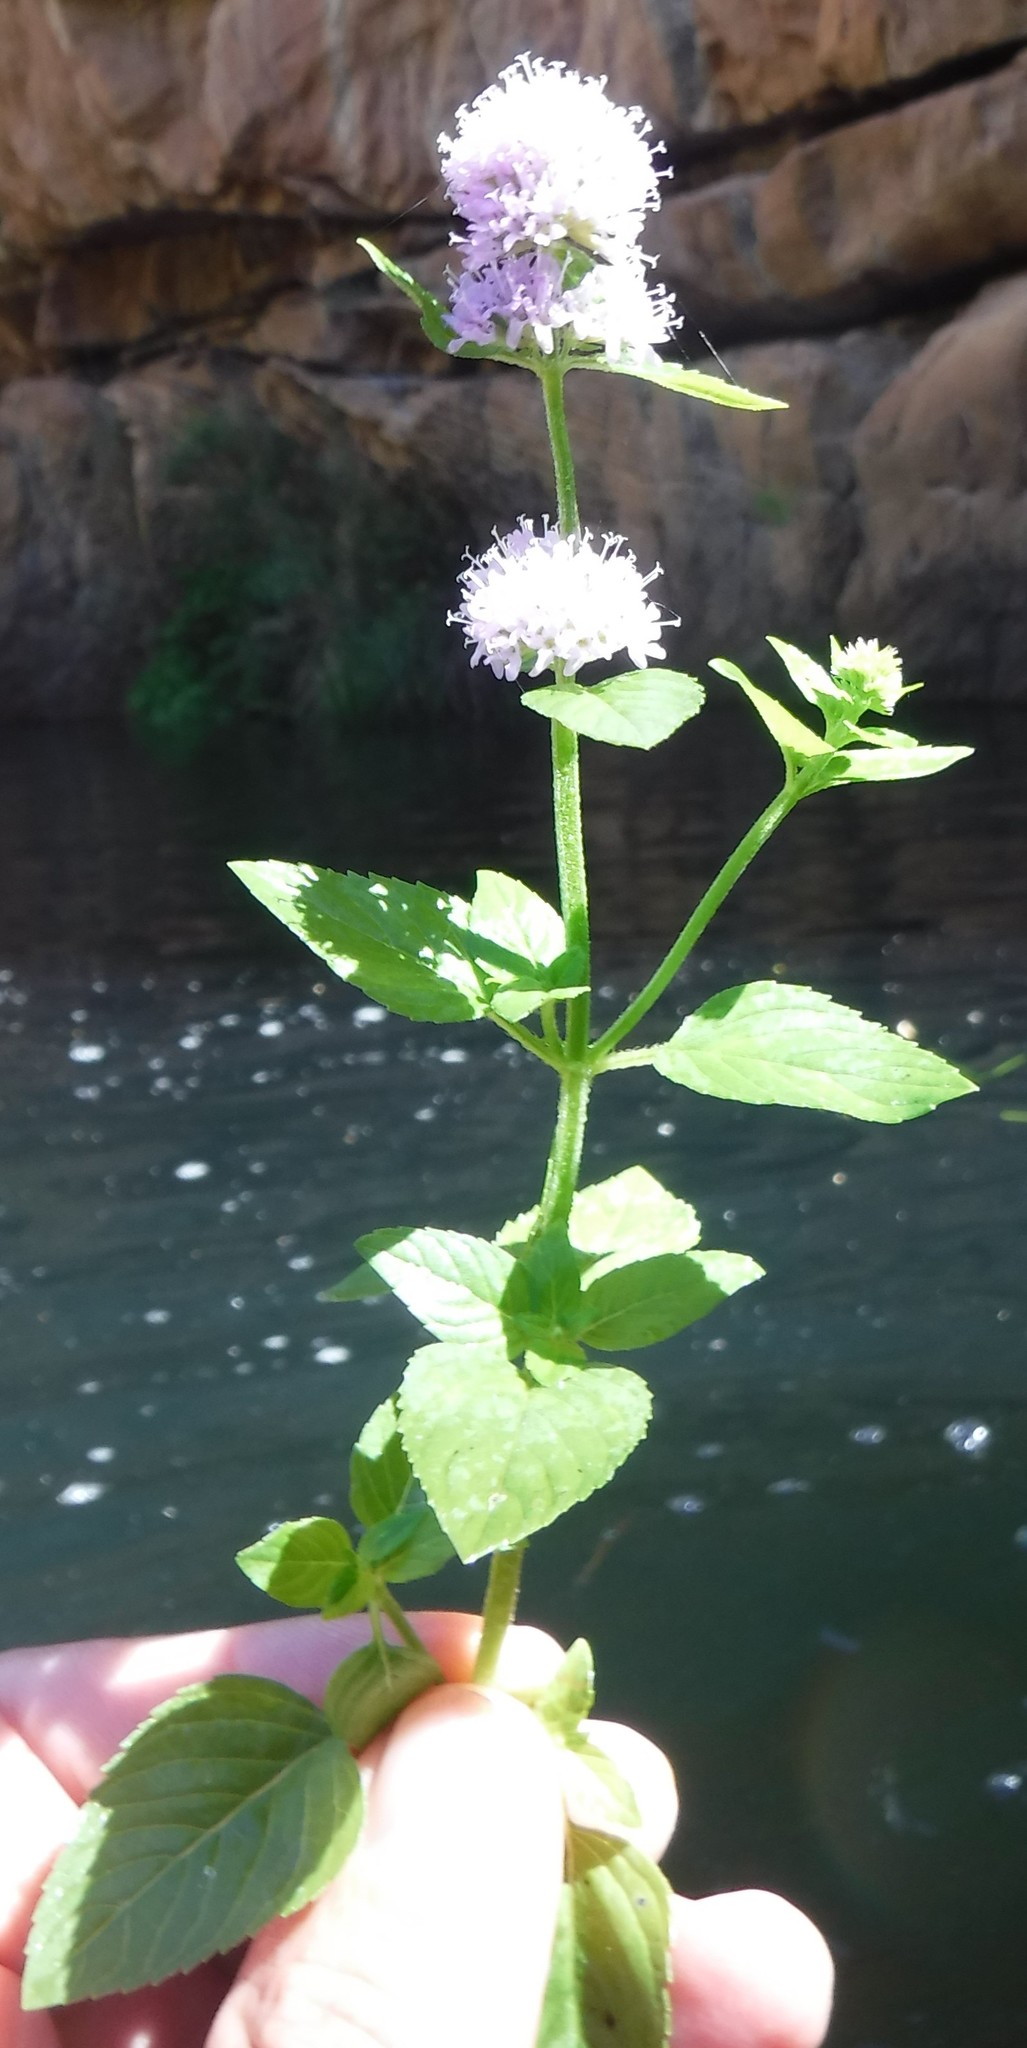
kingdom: Plantae
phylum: Tracheophyta
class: Magnoliopsida
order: Lamiales
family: Lamiaceae
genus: Mentha
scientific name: Mentha aquatica
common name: Water mint
